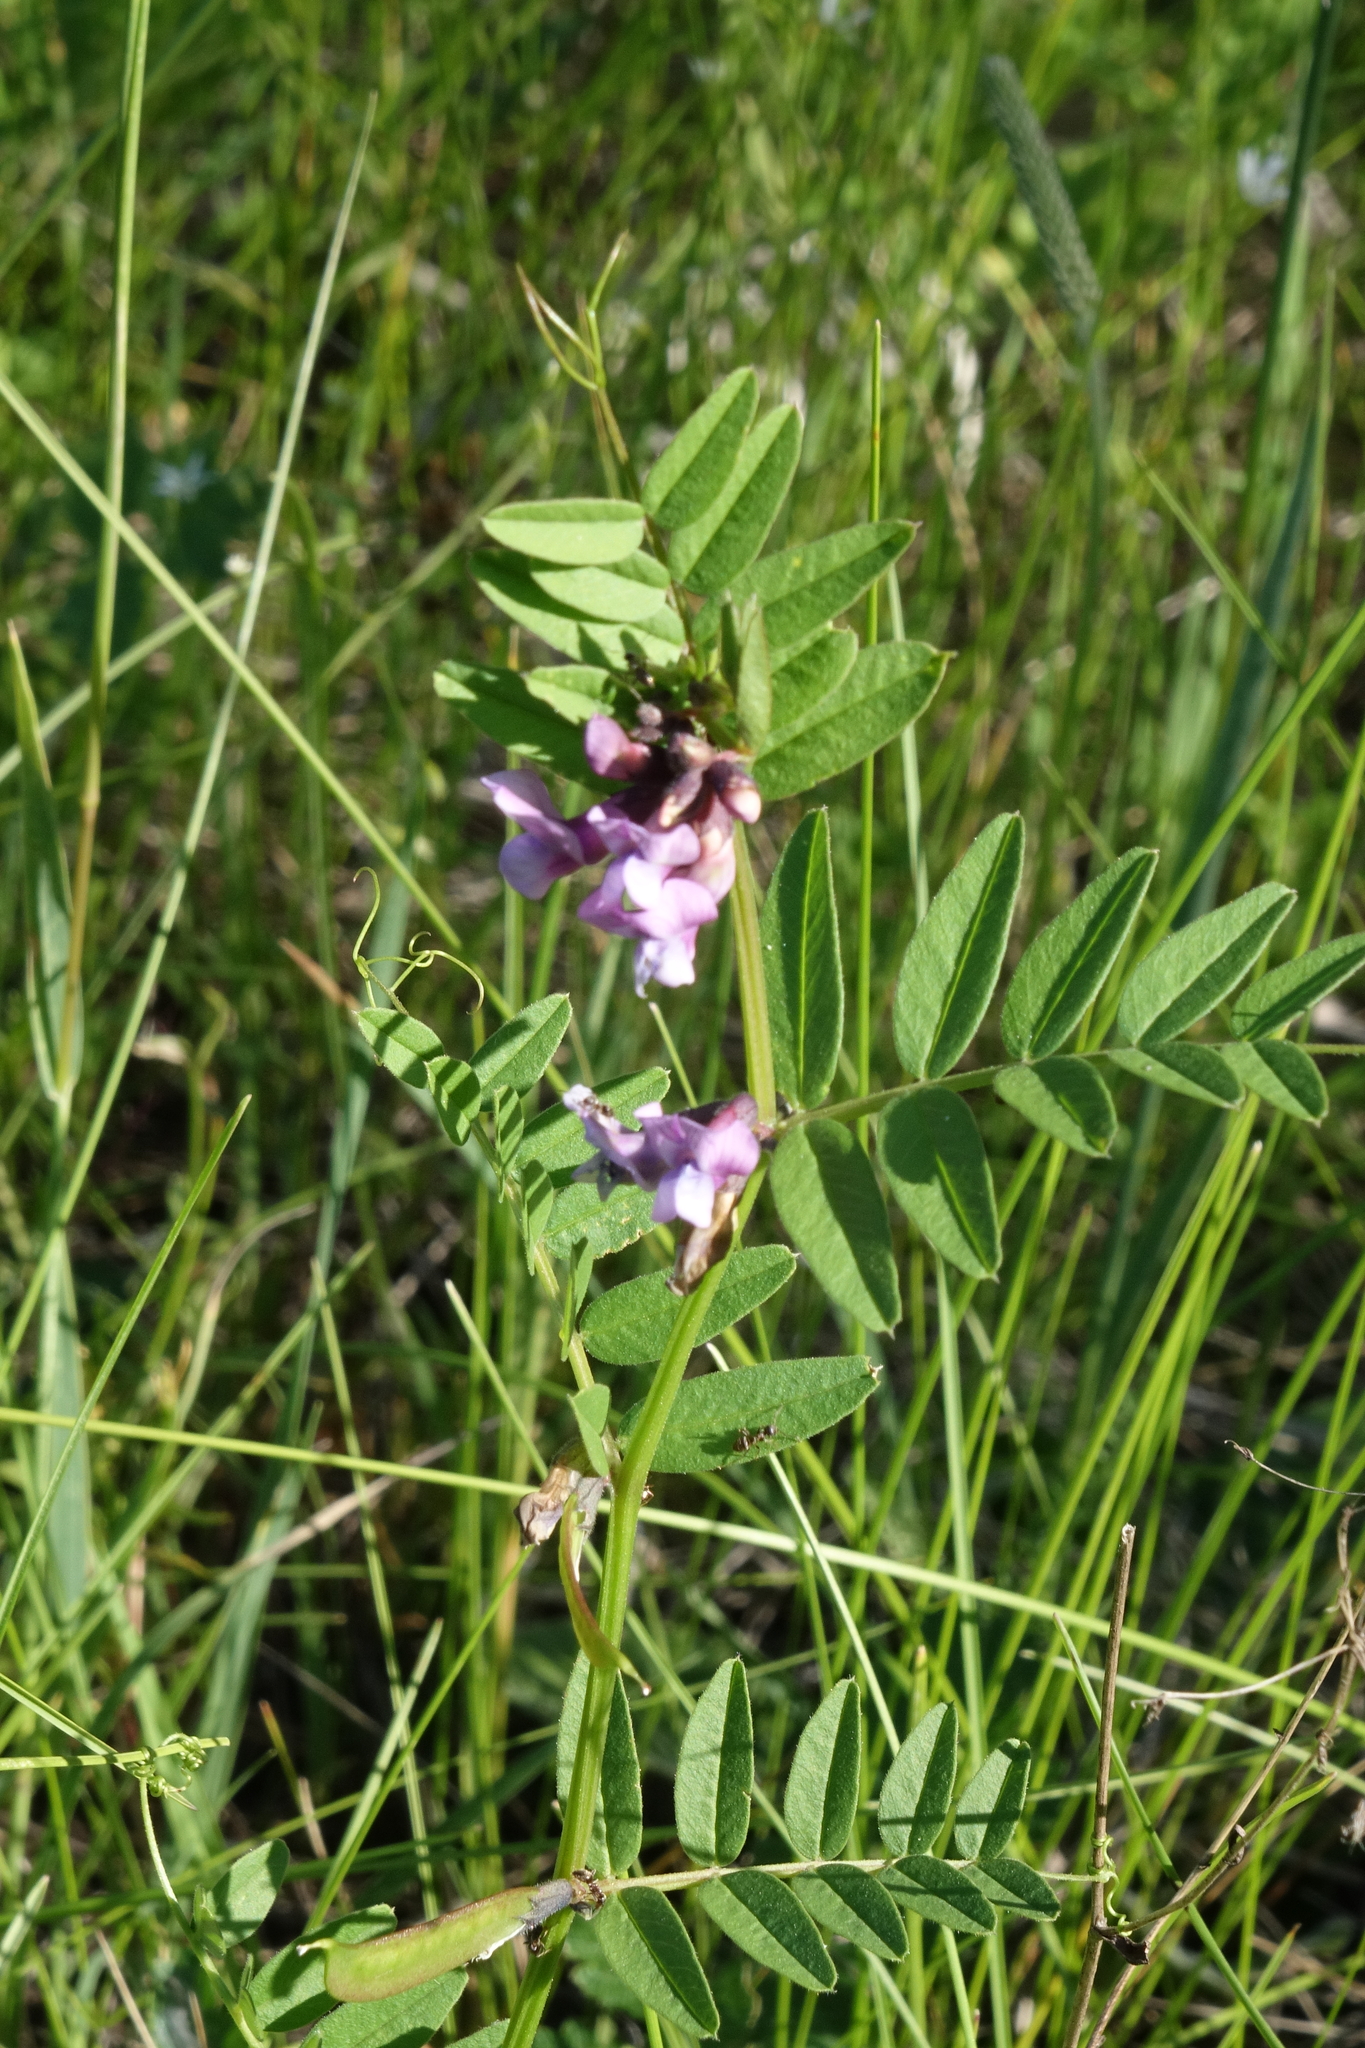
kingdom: Plantae
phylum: Tracheophyta
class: Magnoliopsida
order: Fabales
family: Fabaceae
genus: Vicia
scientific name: Vicia sepium
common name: Bush vetch
